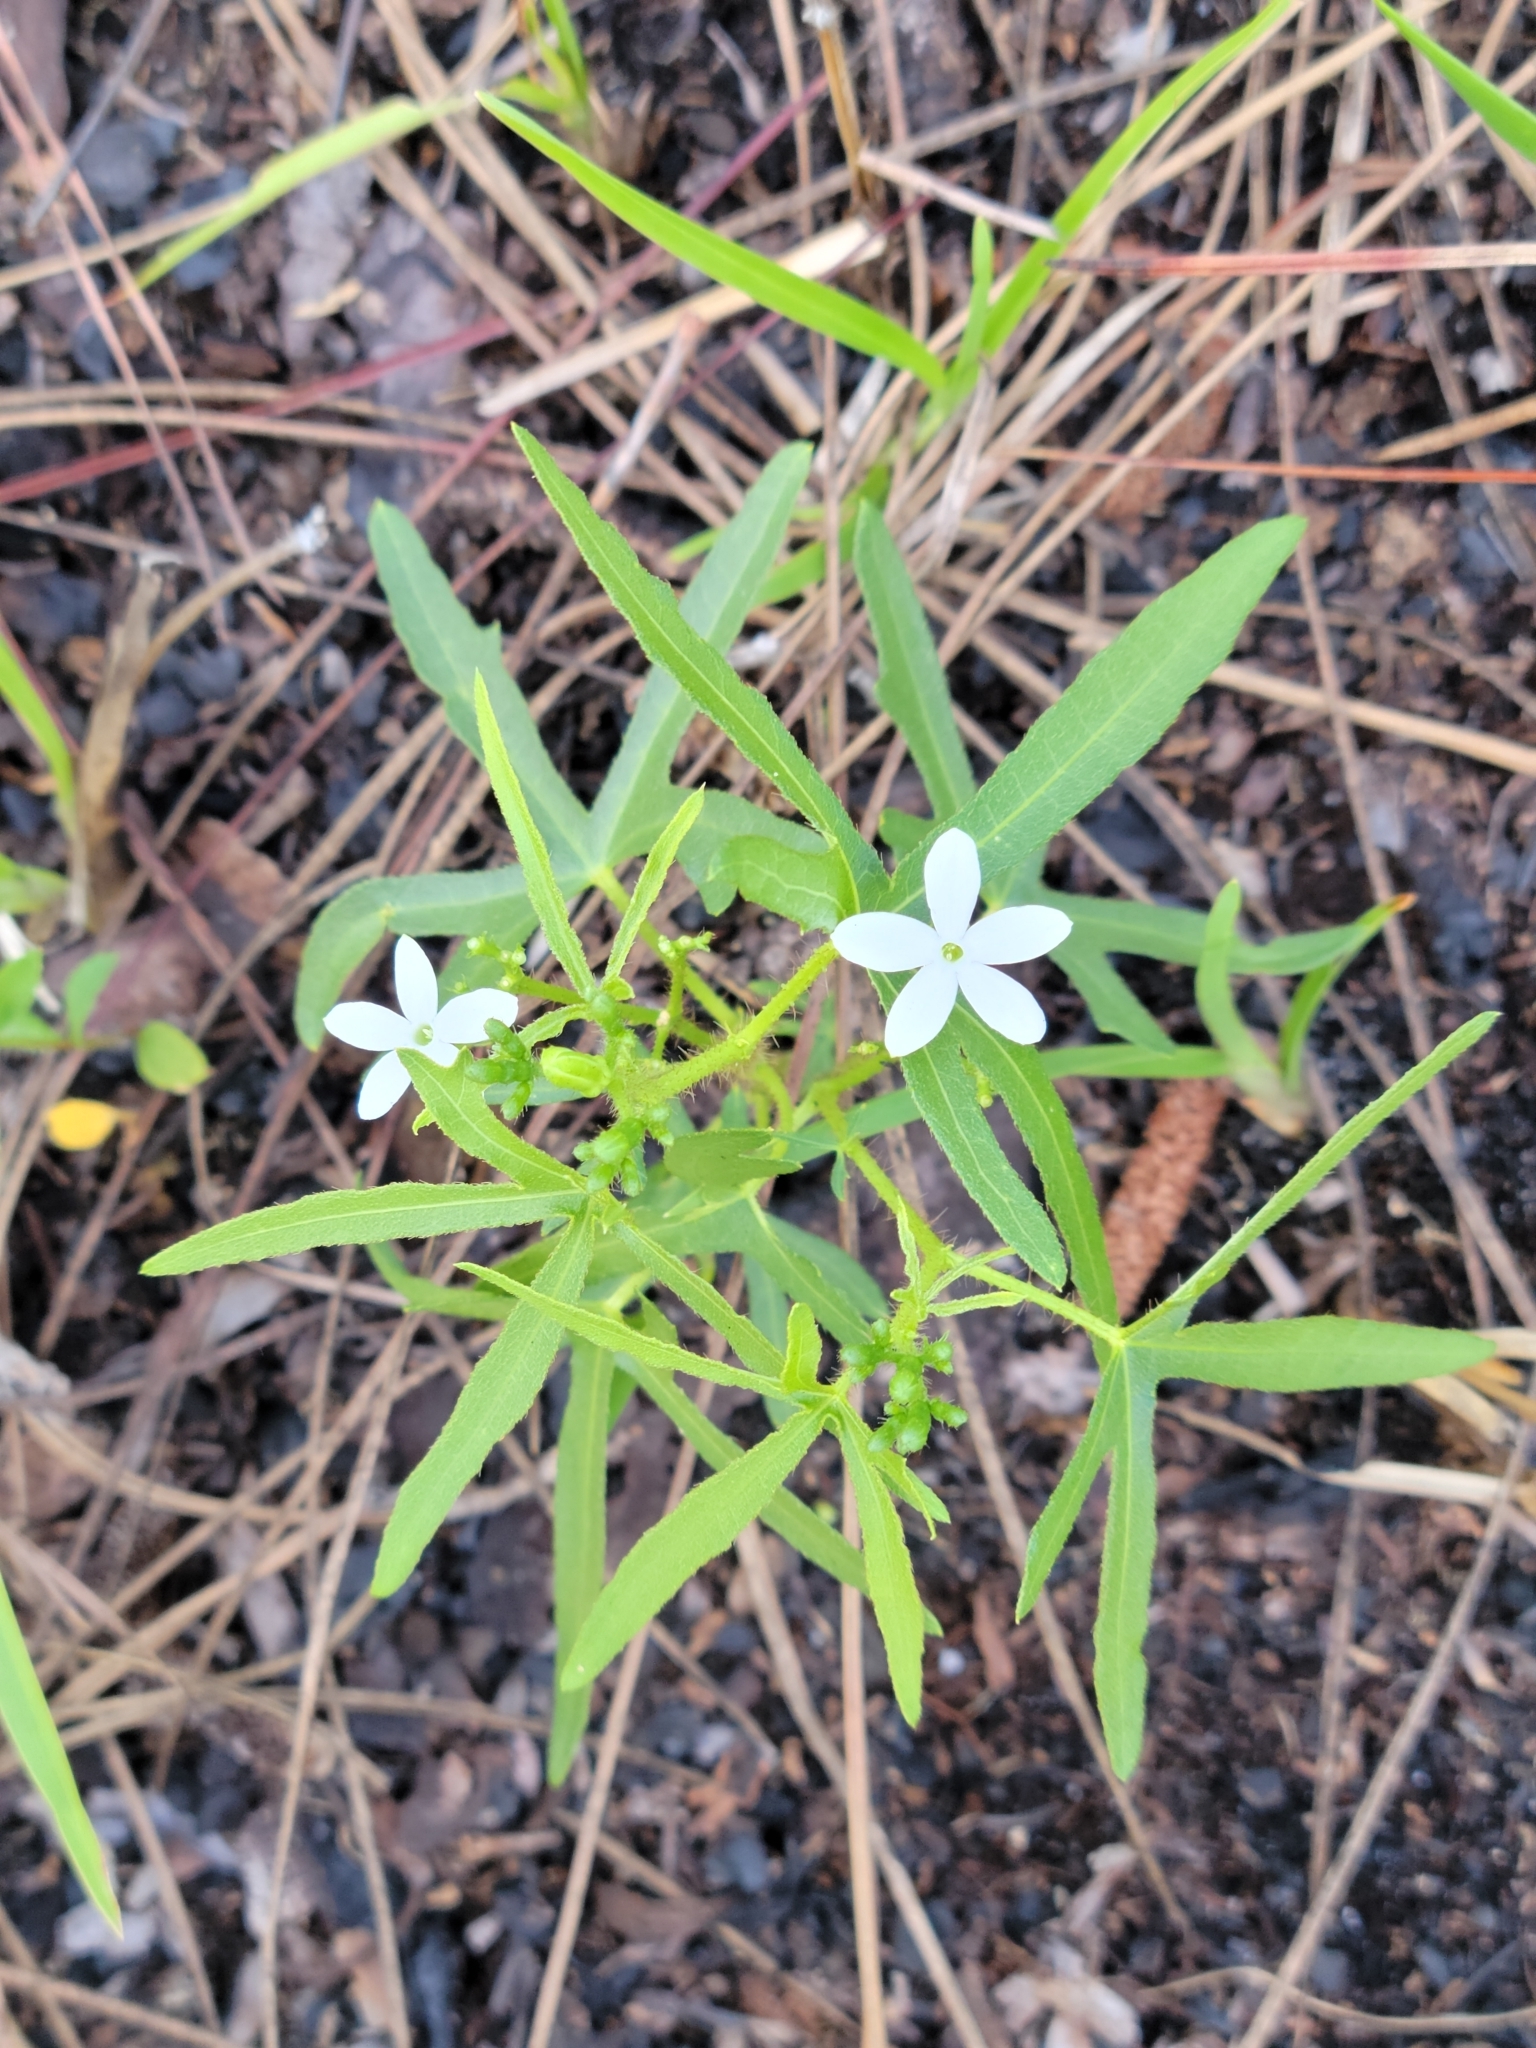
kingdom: Plantae
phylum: Tracheophyta
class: Magnoliopsida
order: Malpighiales
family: Euphorbiaceae
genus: Cnidoscolus
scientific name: Cnidoscolus stimulosus
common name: Bull-nettle
